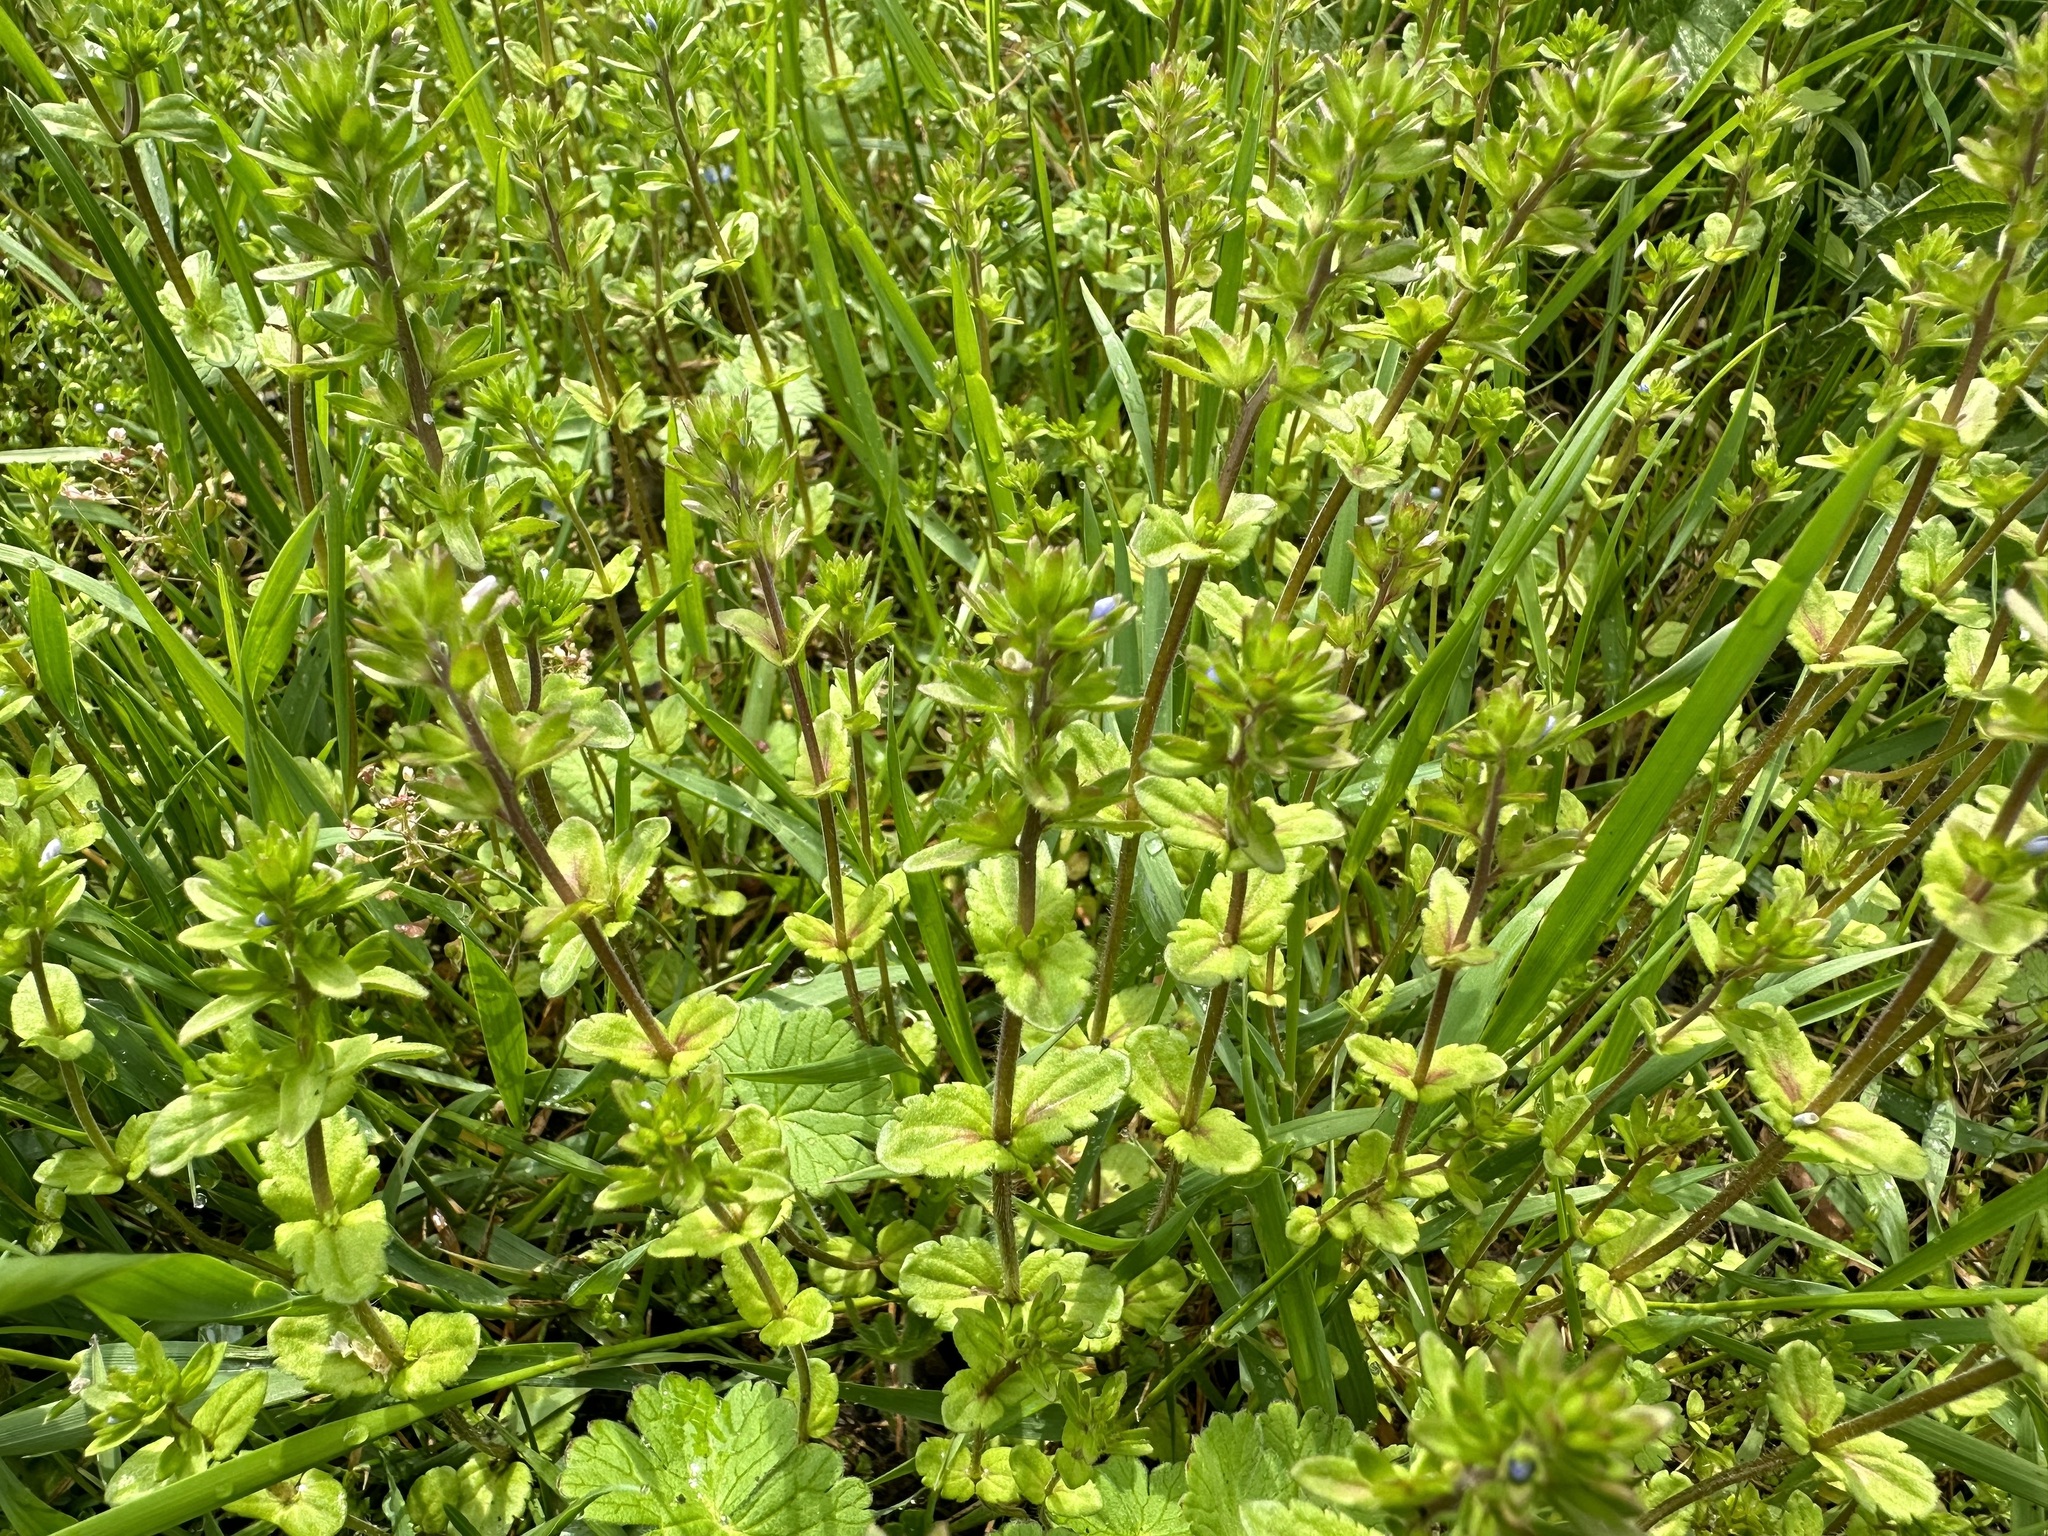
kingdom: Plantae
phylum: Tracheophyta
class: Magnoliopsida
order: Lamiales
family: Plantaginaceae
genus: Veronica
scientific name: Veronica arvensis
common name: Corn speedwell
